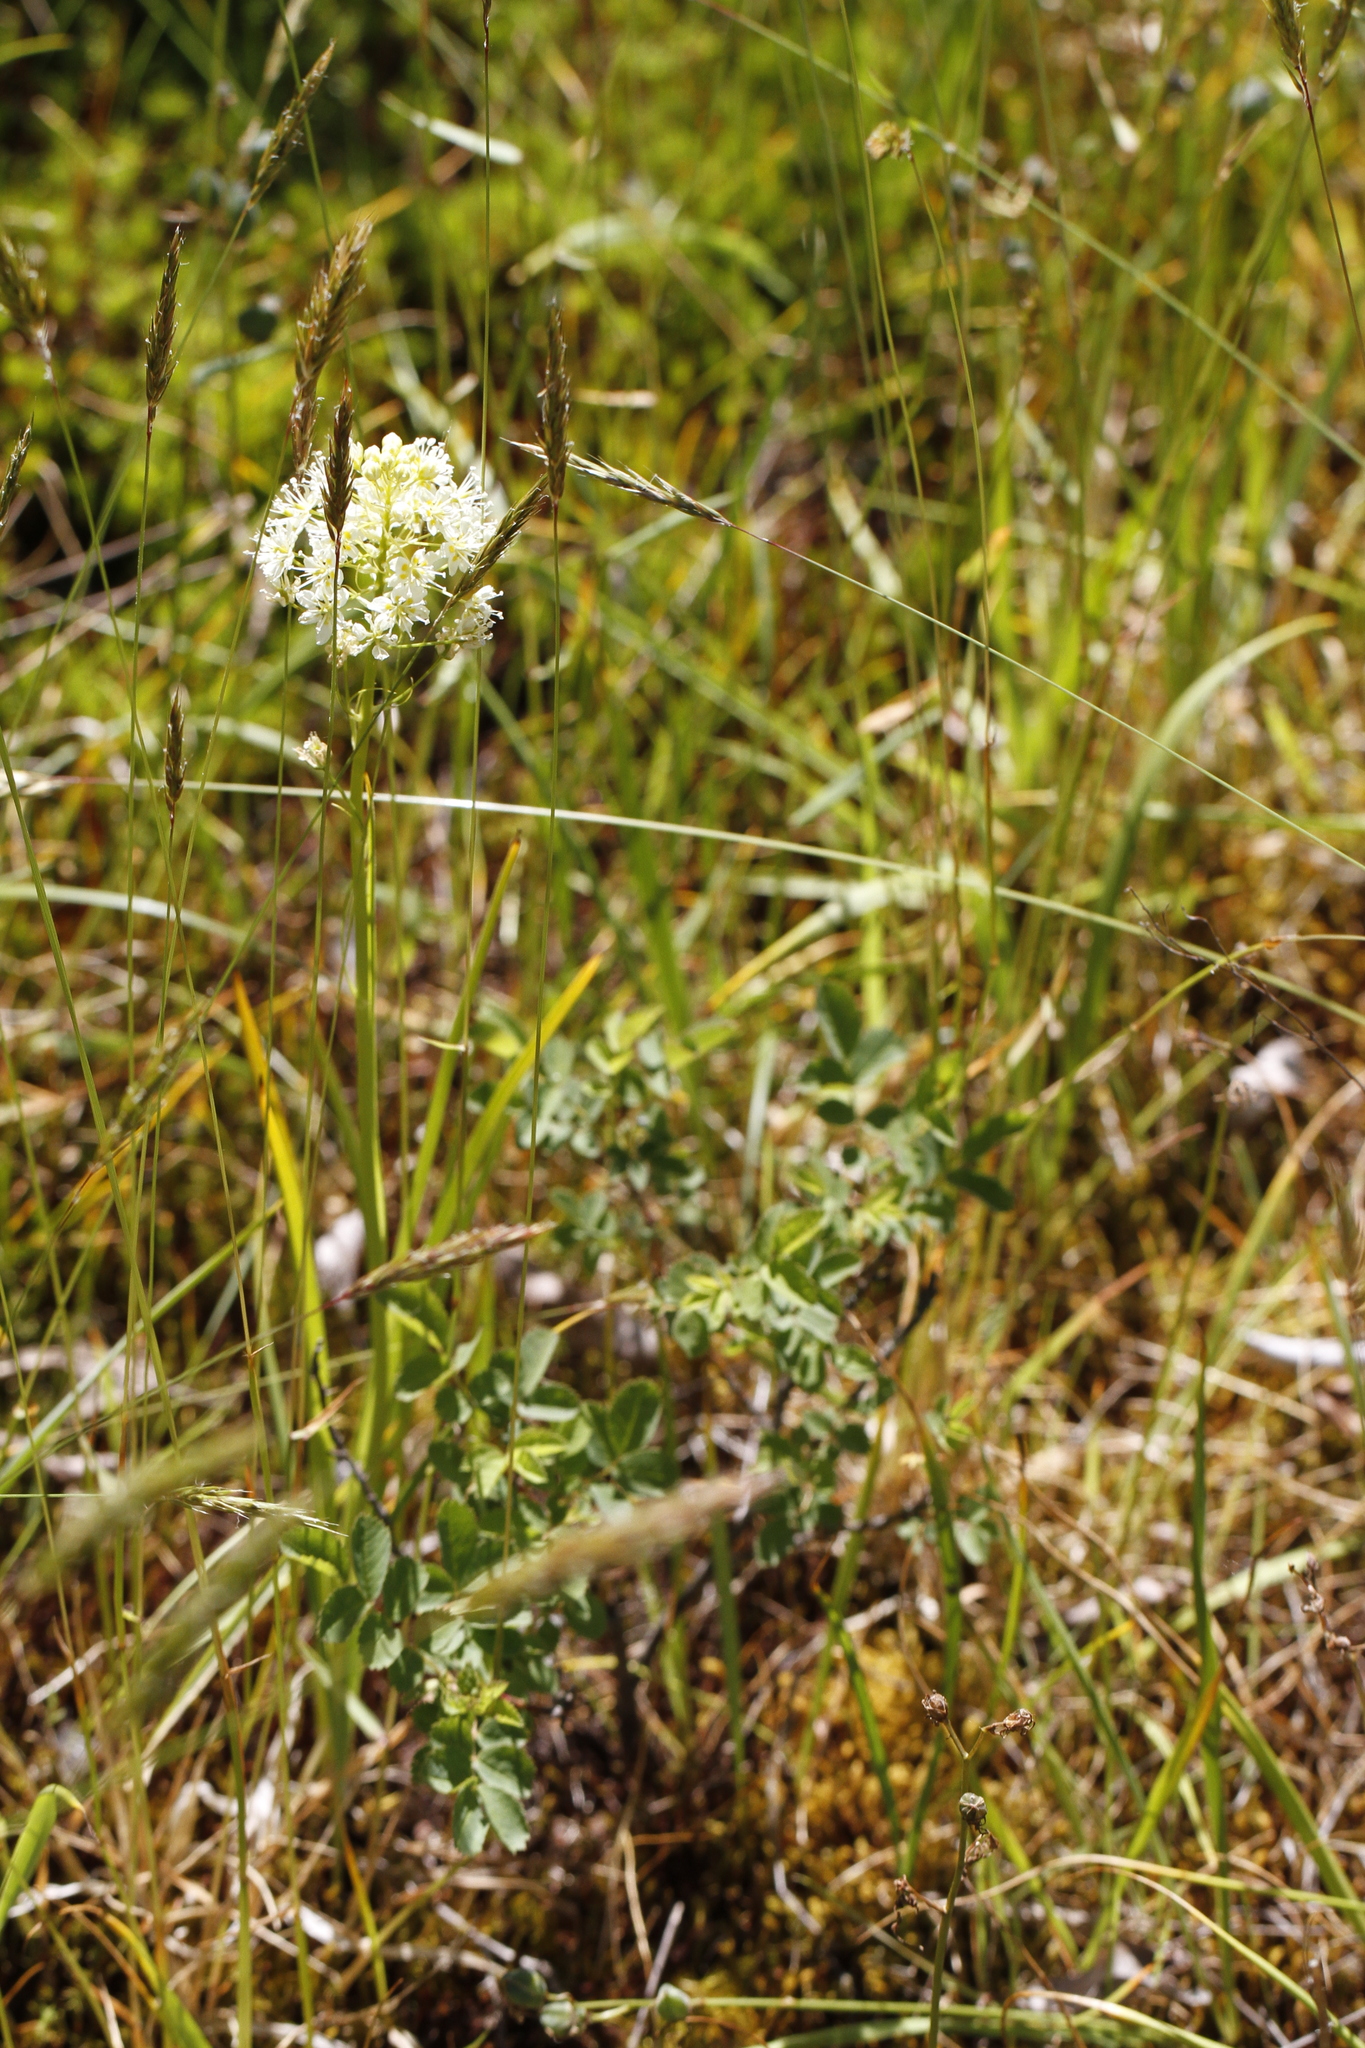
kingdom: Plantae
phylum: Tracheophyta
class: Liliopsida
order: Liliales
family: Melanthiaceae
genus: Toxicoscordion
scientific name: Toxicoscordion venenosum
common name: Meadow death camas
